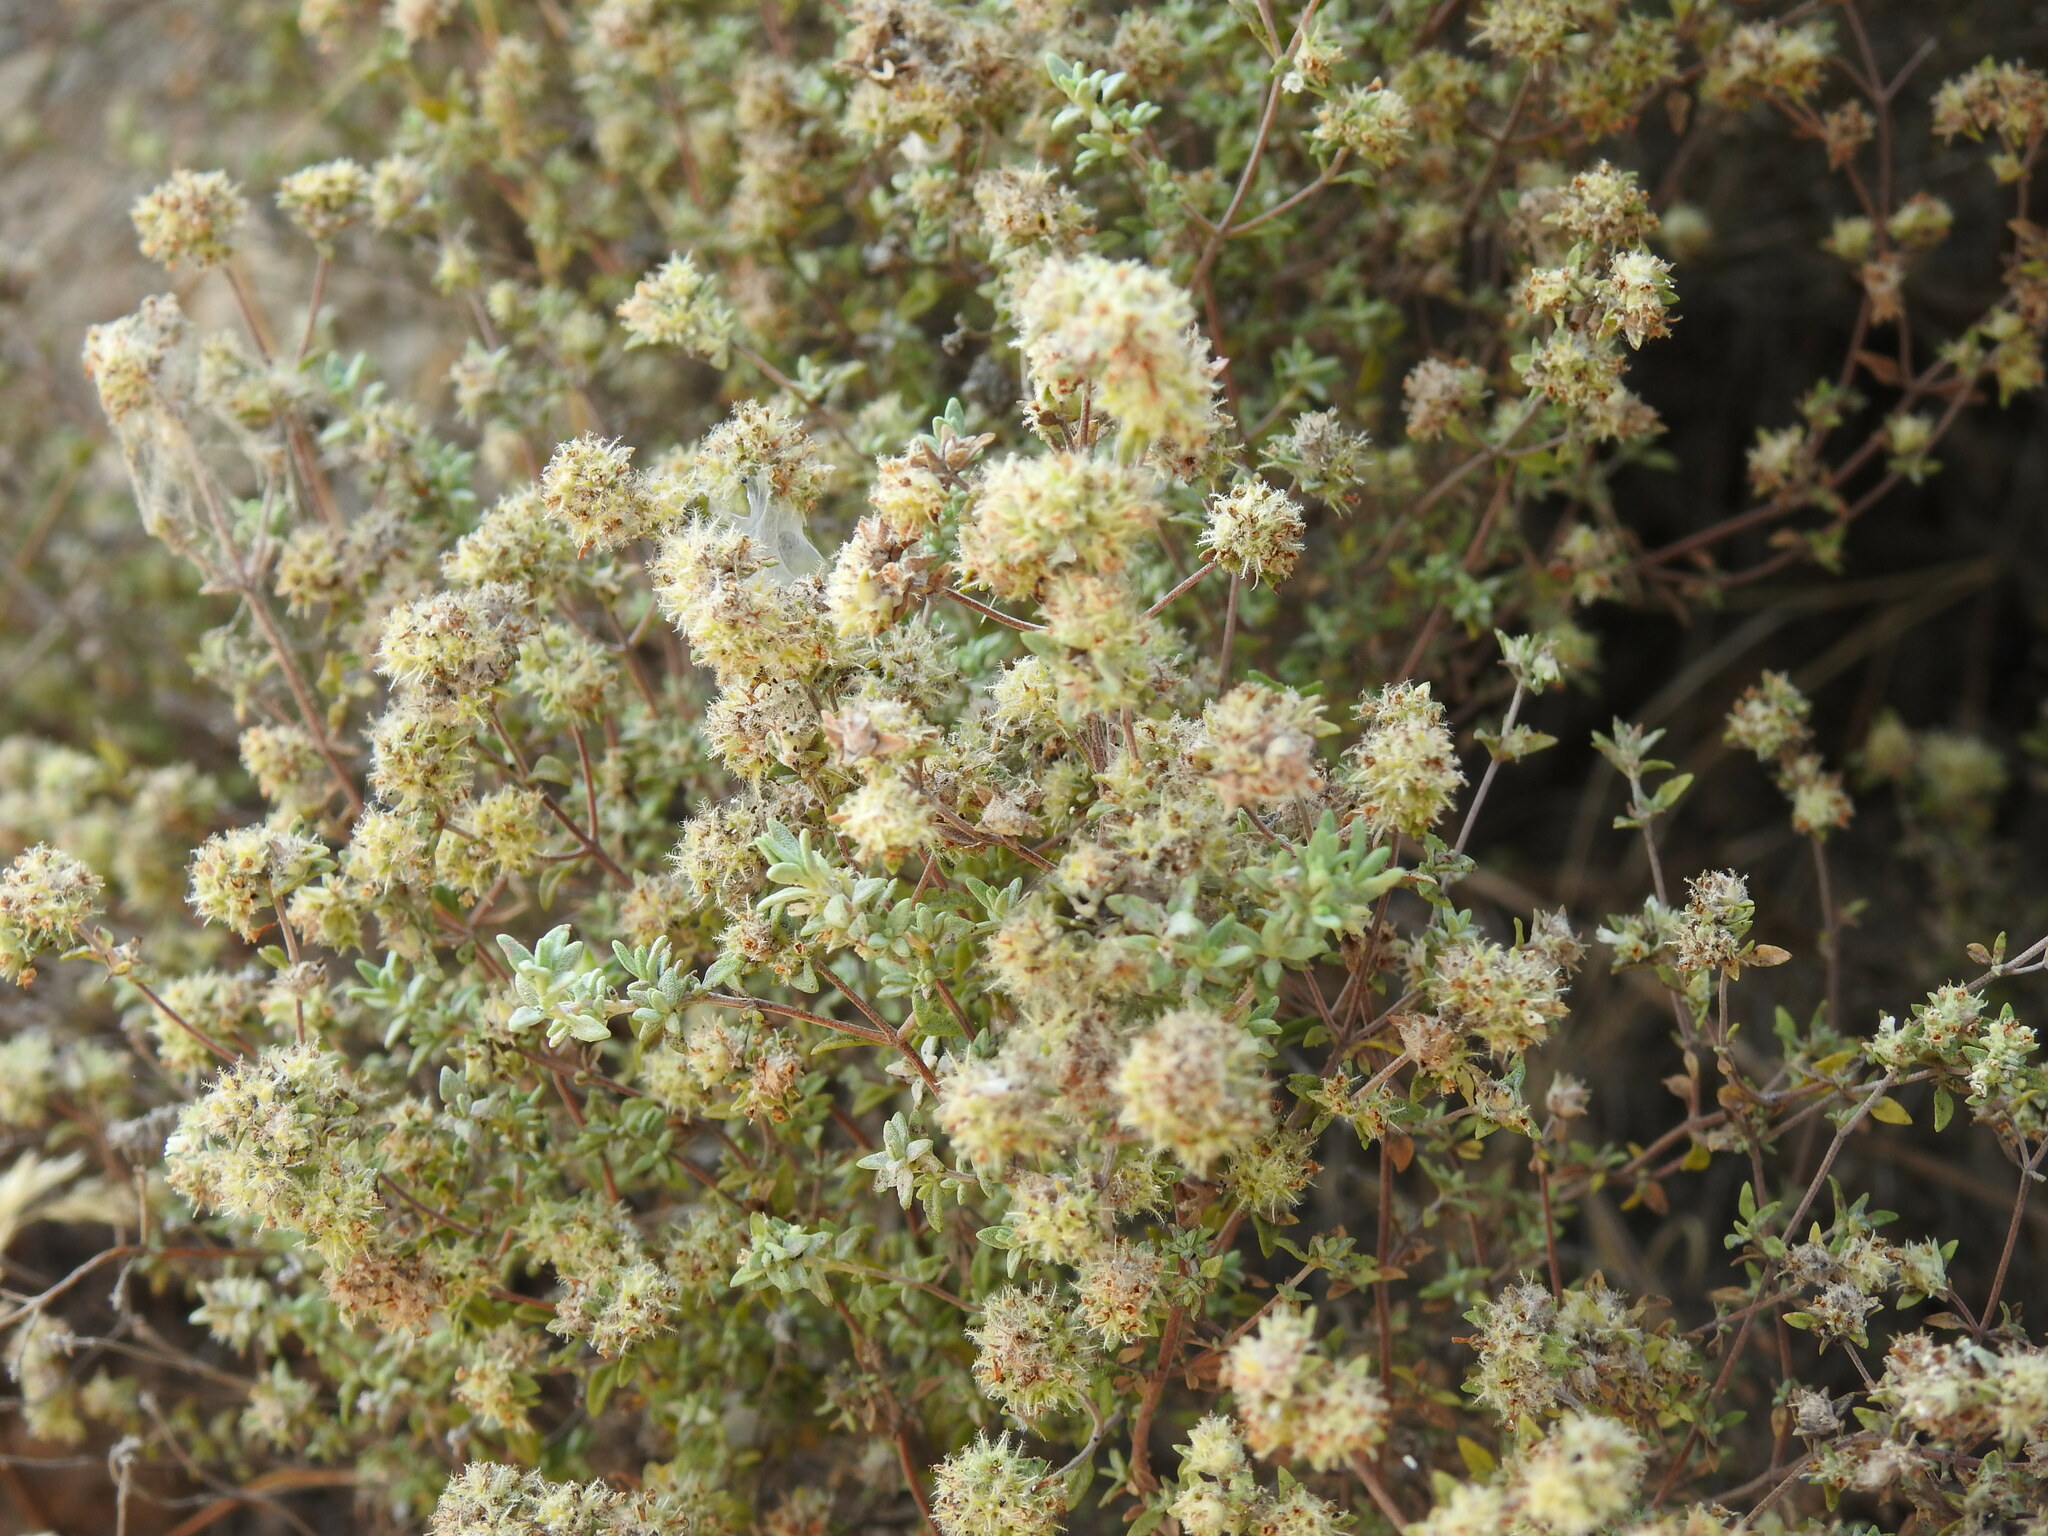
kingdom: Plantae
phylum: Tracheophyta
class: Magnoliopsida
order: Lamiales
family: Lamiaceae
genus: Thymus
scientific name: Thymus albicans
